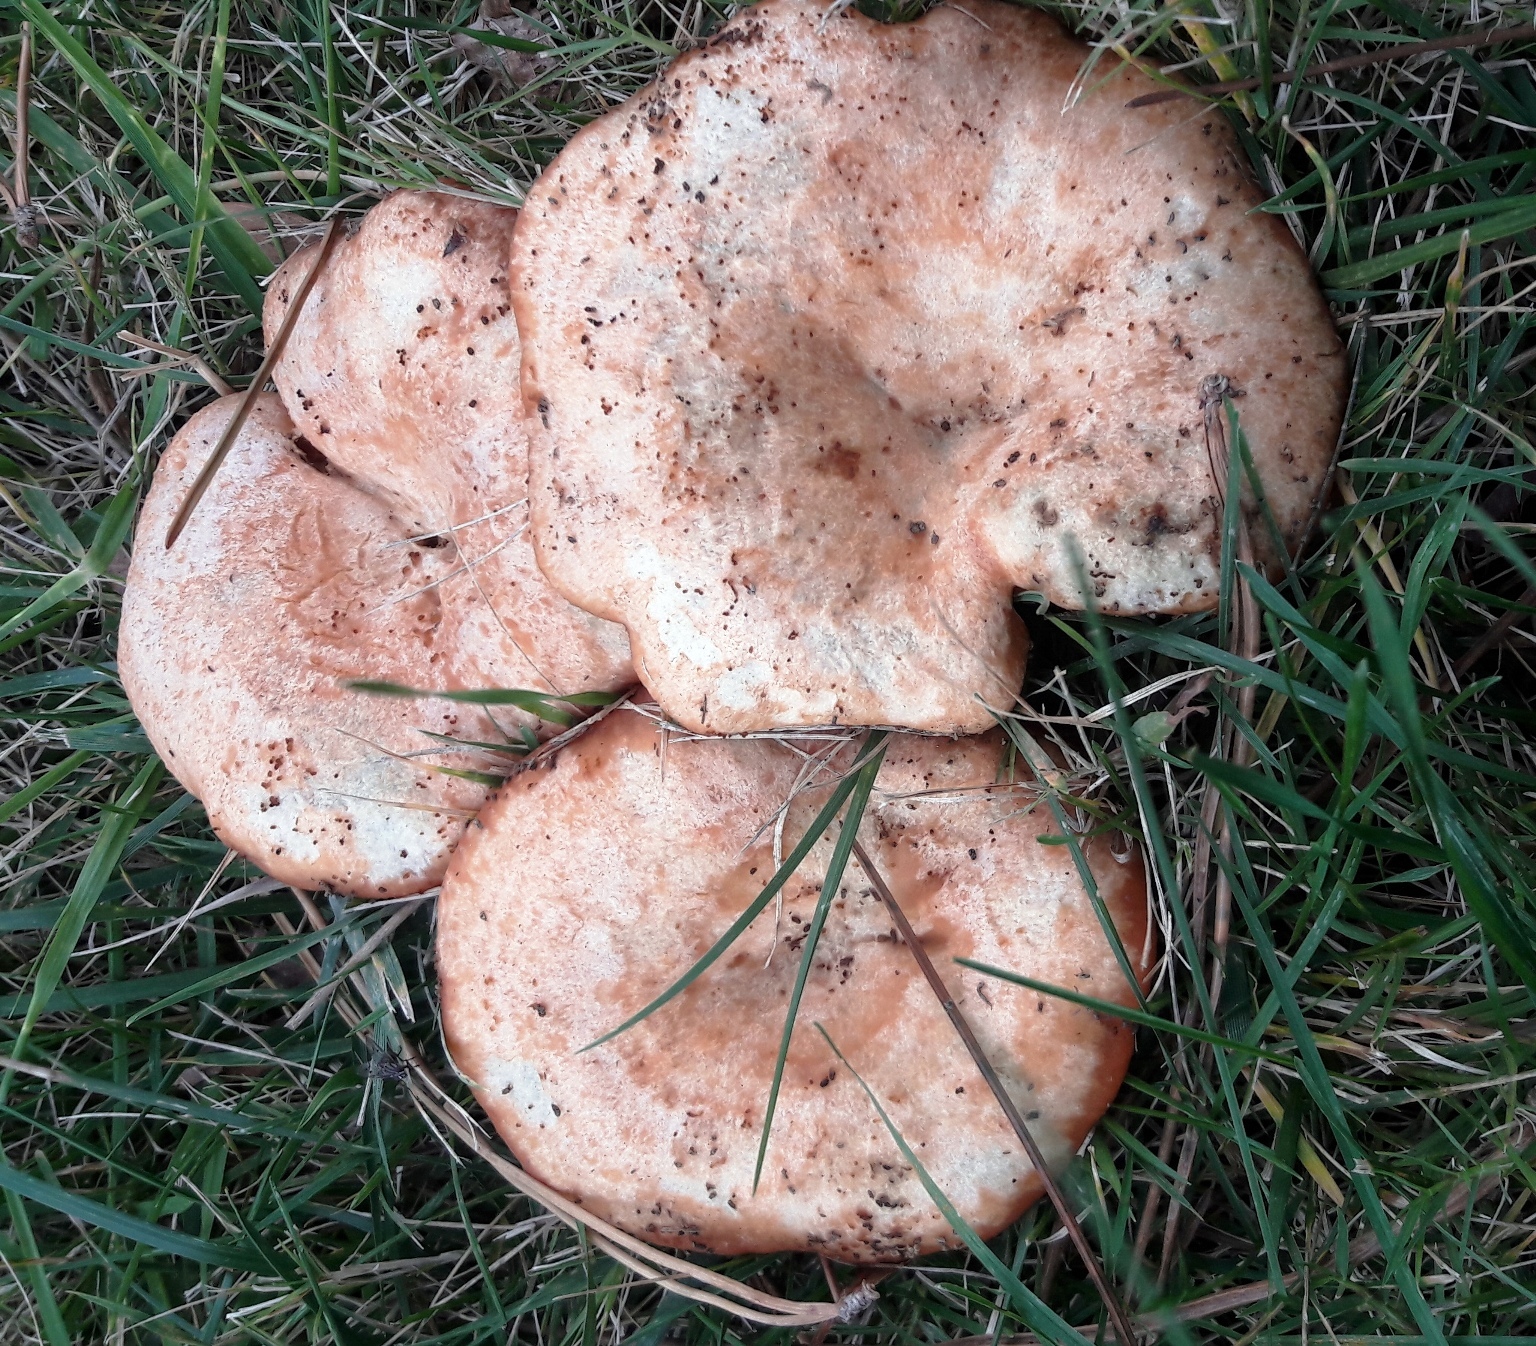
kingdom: Fungi
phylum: Basidiomycota
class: Agaricomycetes
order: Russulales
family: Russulaceae
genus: Lactarius
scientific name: Lactarius deliciosus
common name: Saffron milk-cap
